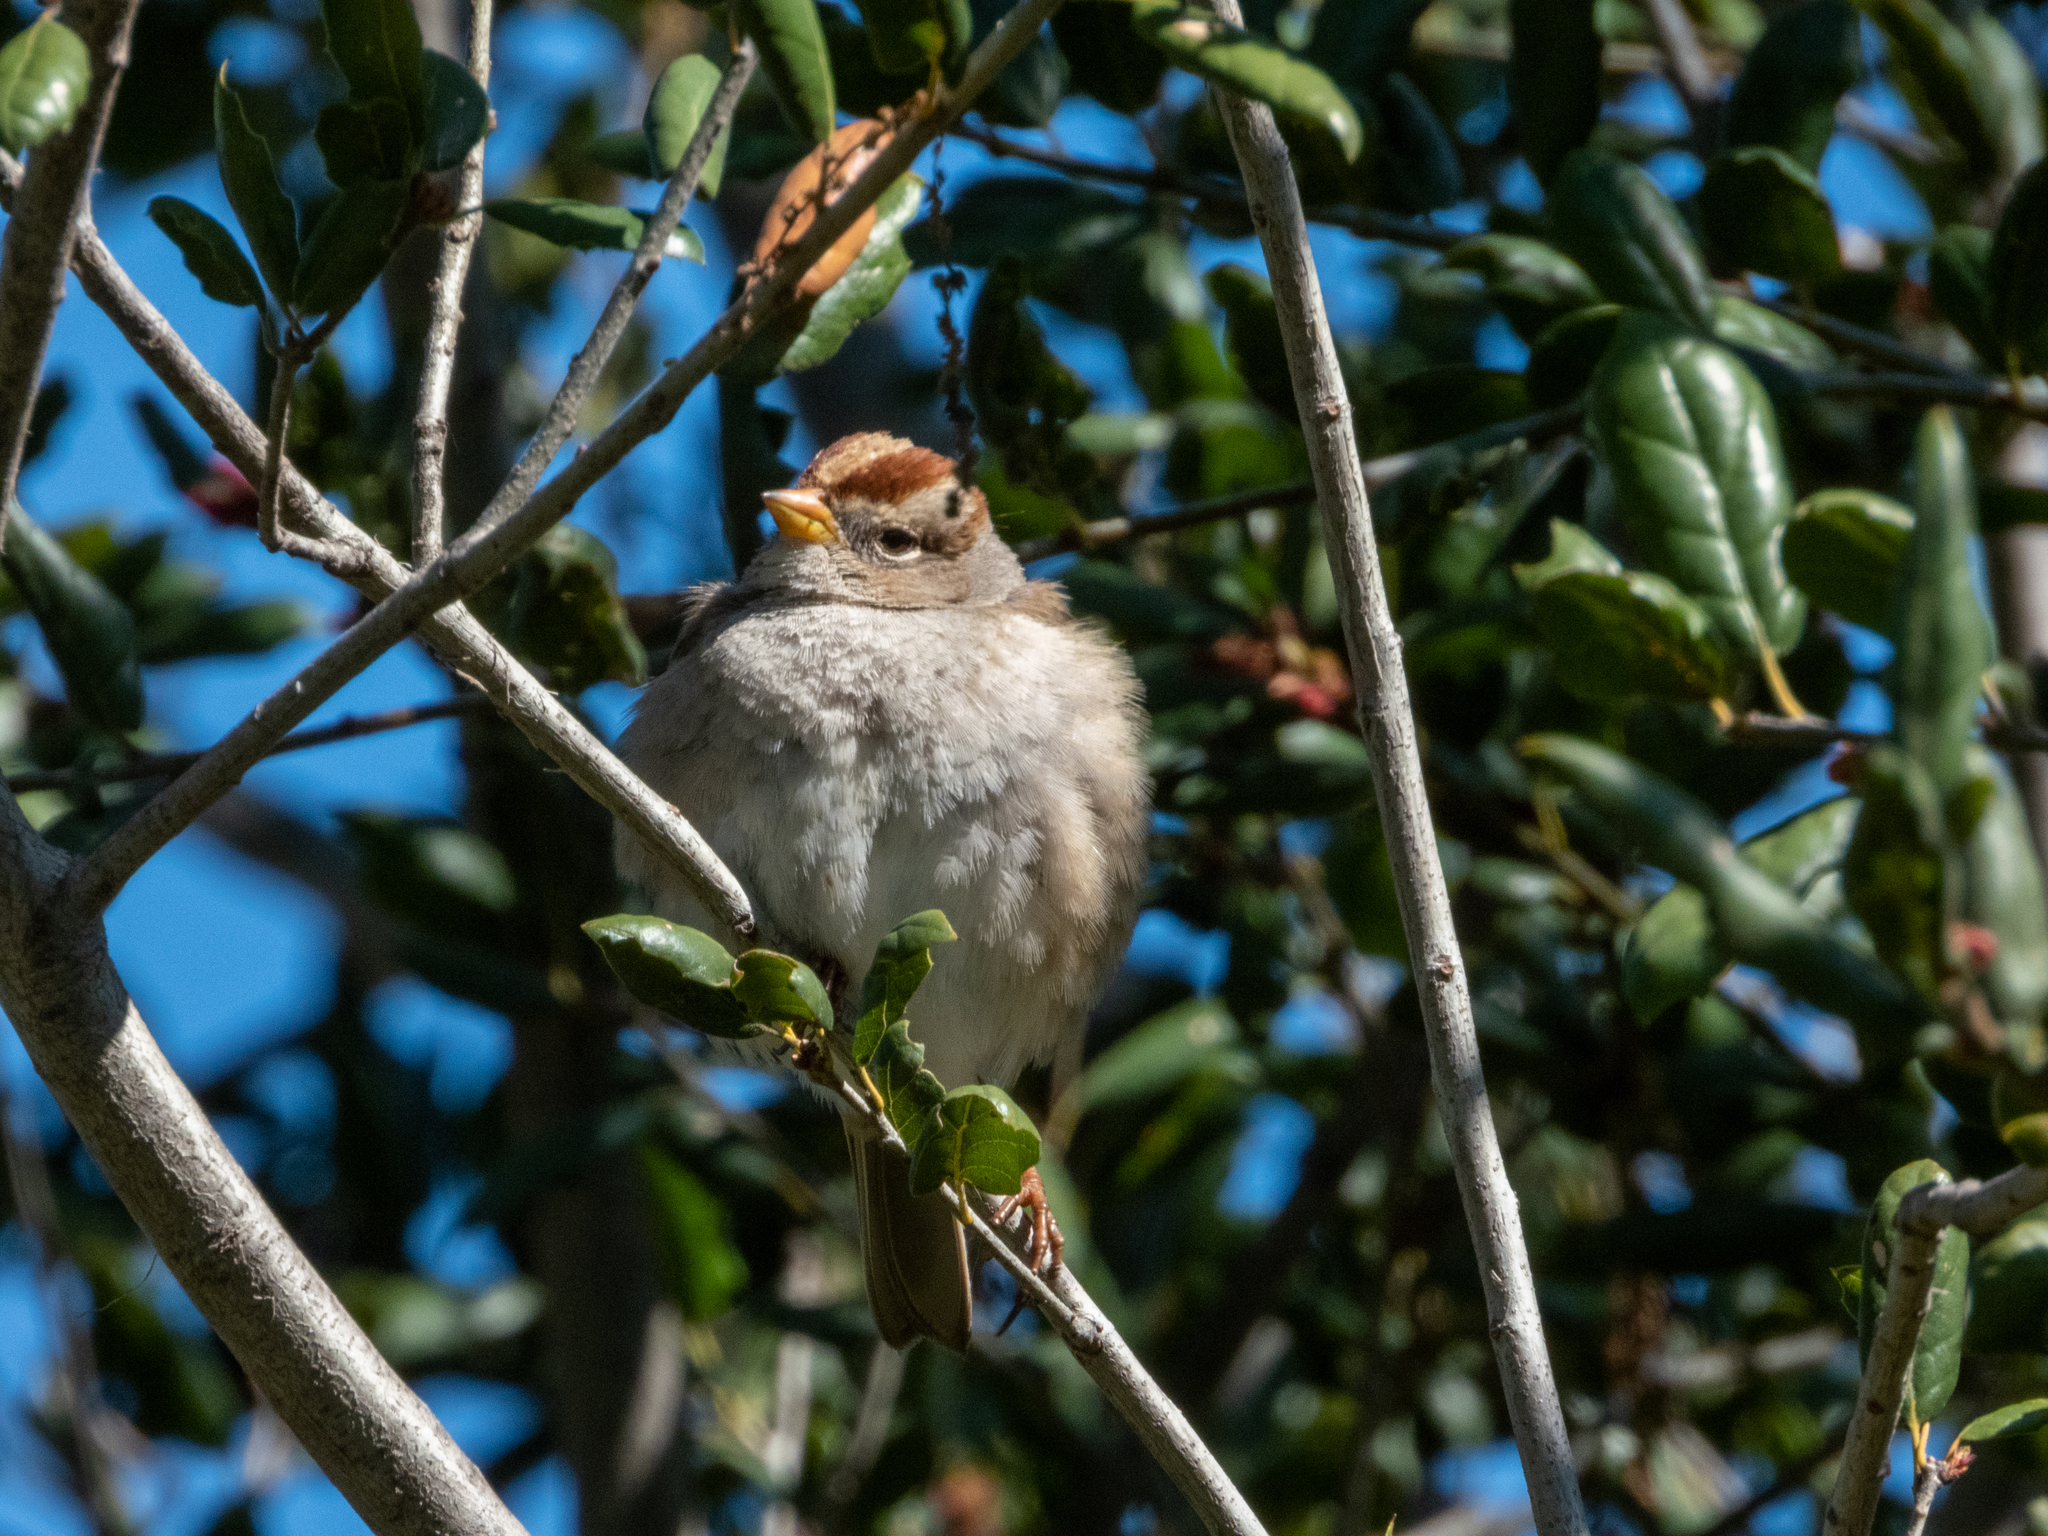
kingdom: Animalia
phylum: Chordata
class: Aves
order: Passeriformes
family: Passerellidae
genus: Zonotrichia
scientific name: Zonotrichia leucophrys
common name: White-crowned sparrow
